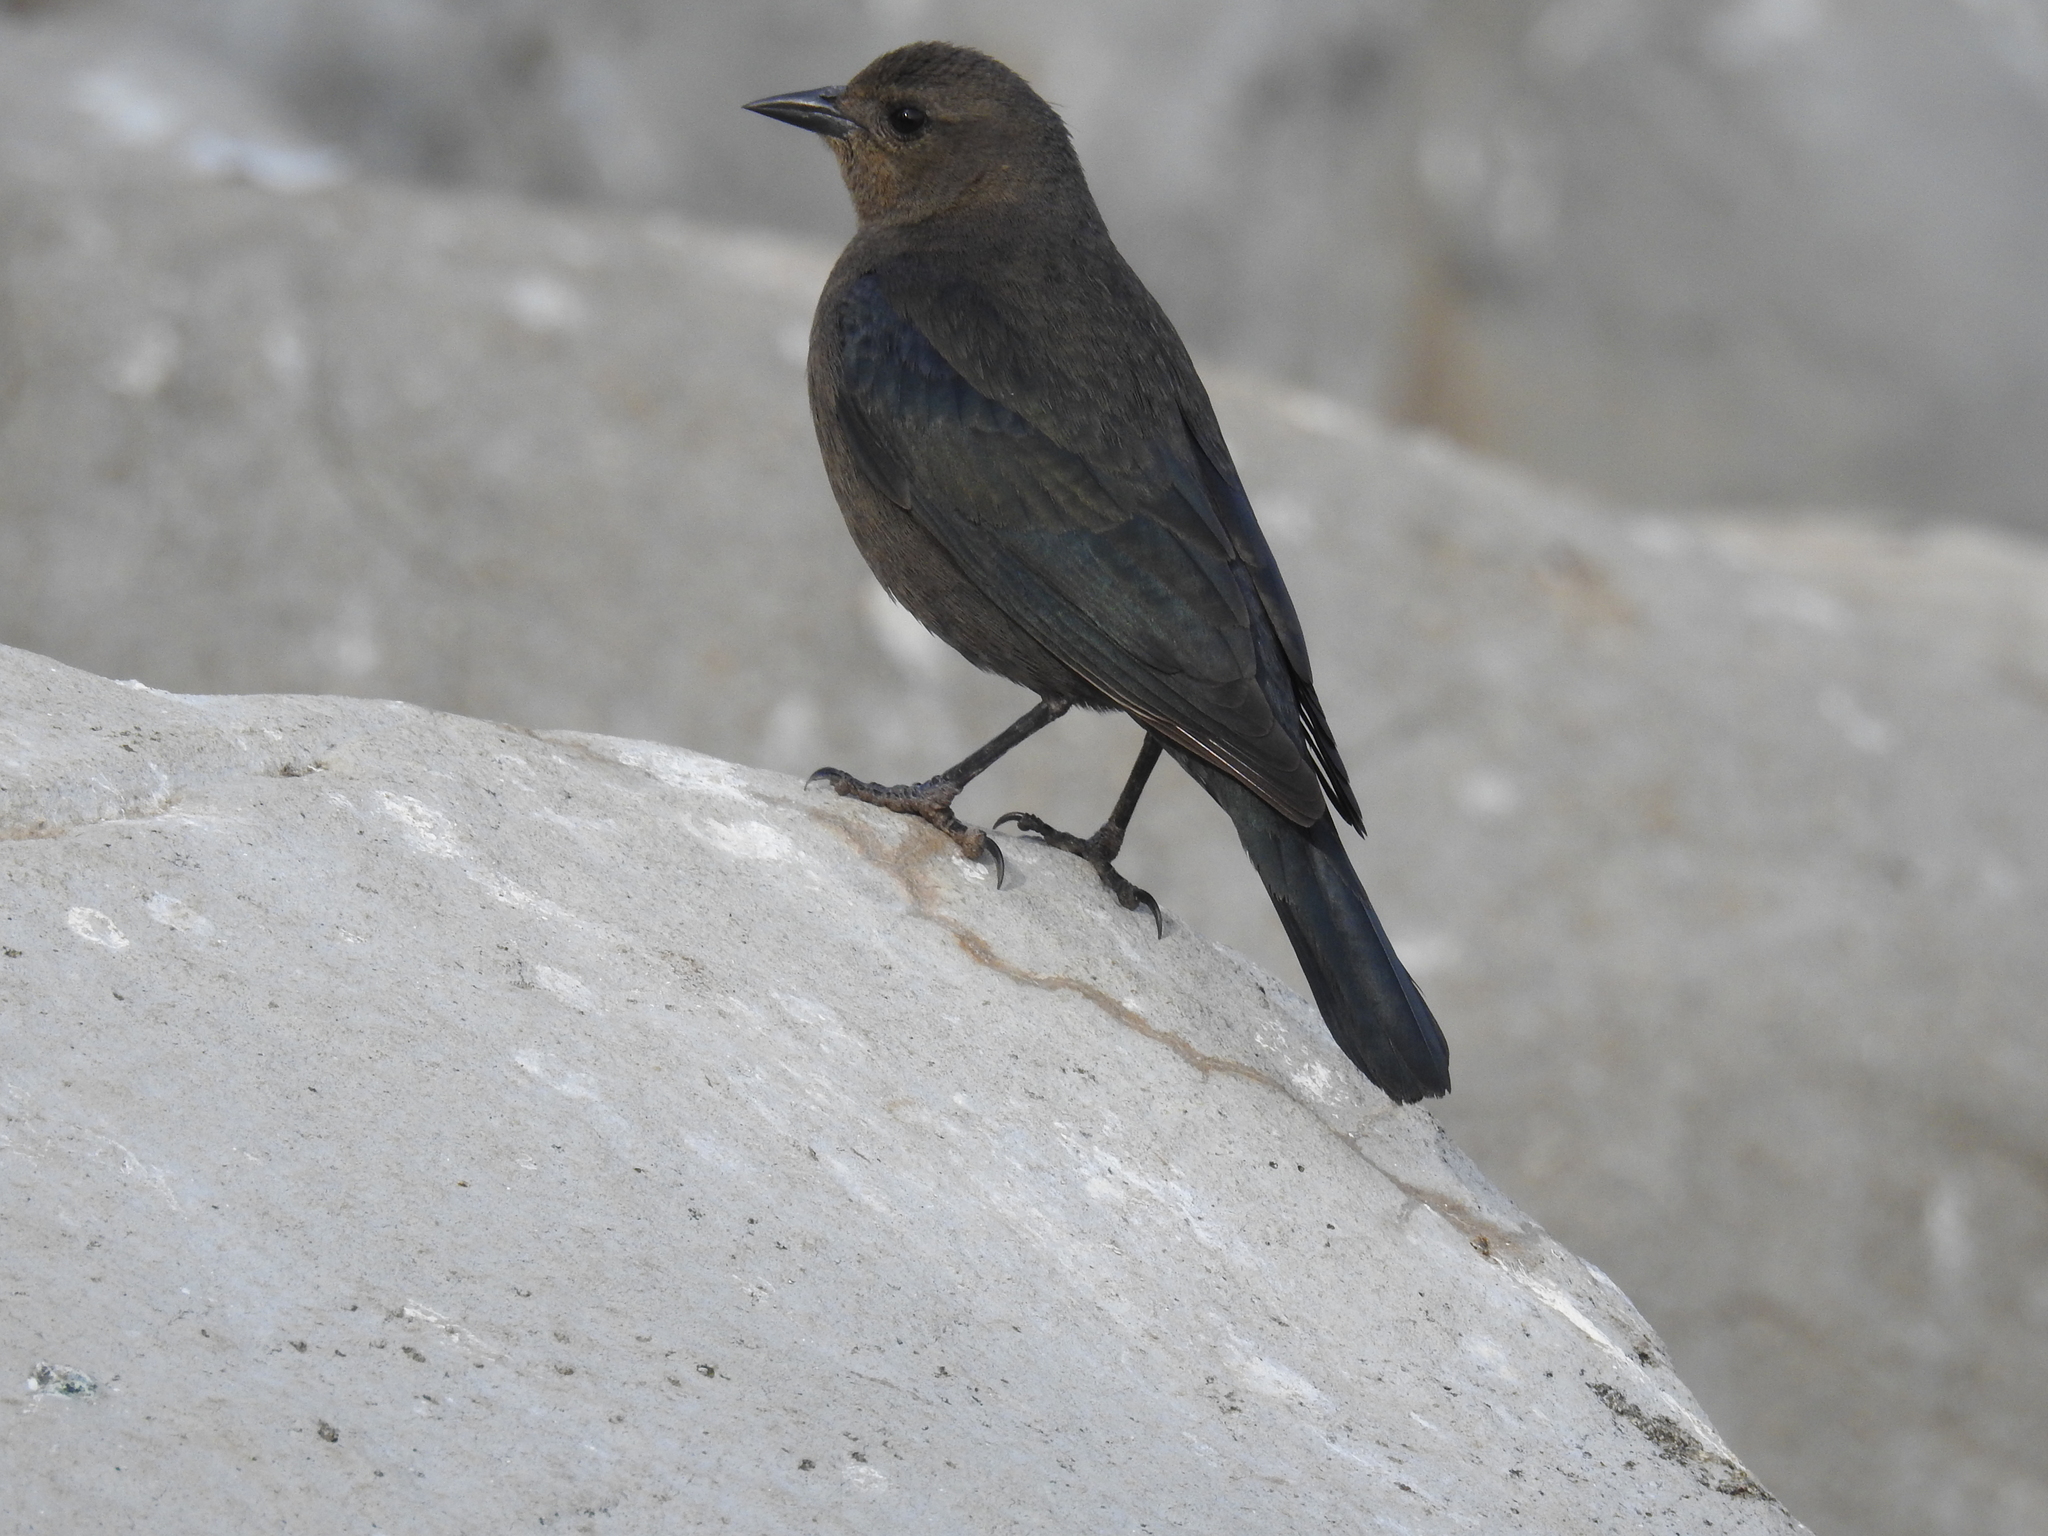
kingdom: Animalia
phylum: Chordata
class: Aves
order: Passeriformes
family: Icteridae
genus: Euphagus
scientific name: Euphagus cyanocephalus
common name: Brewer's blackbird
